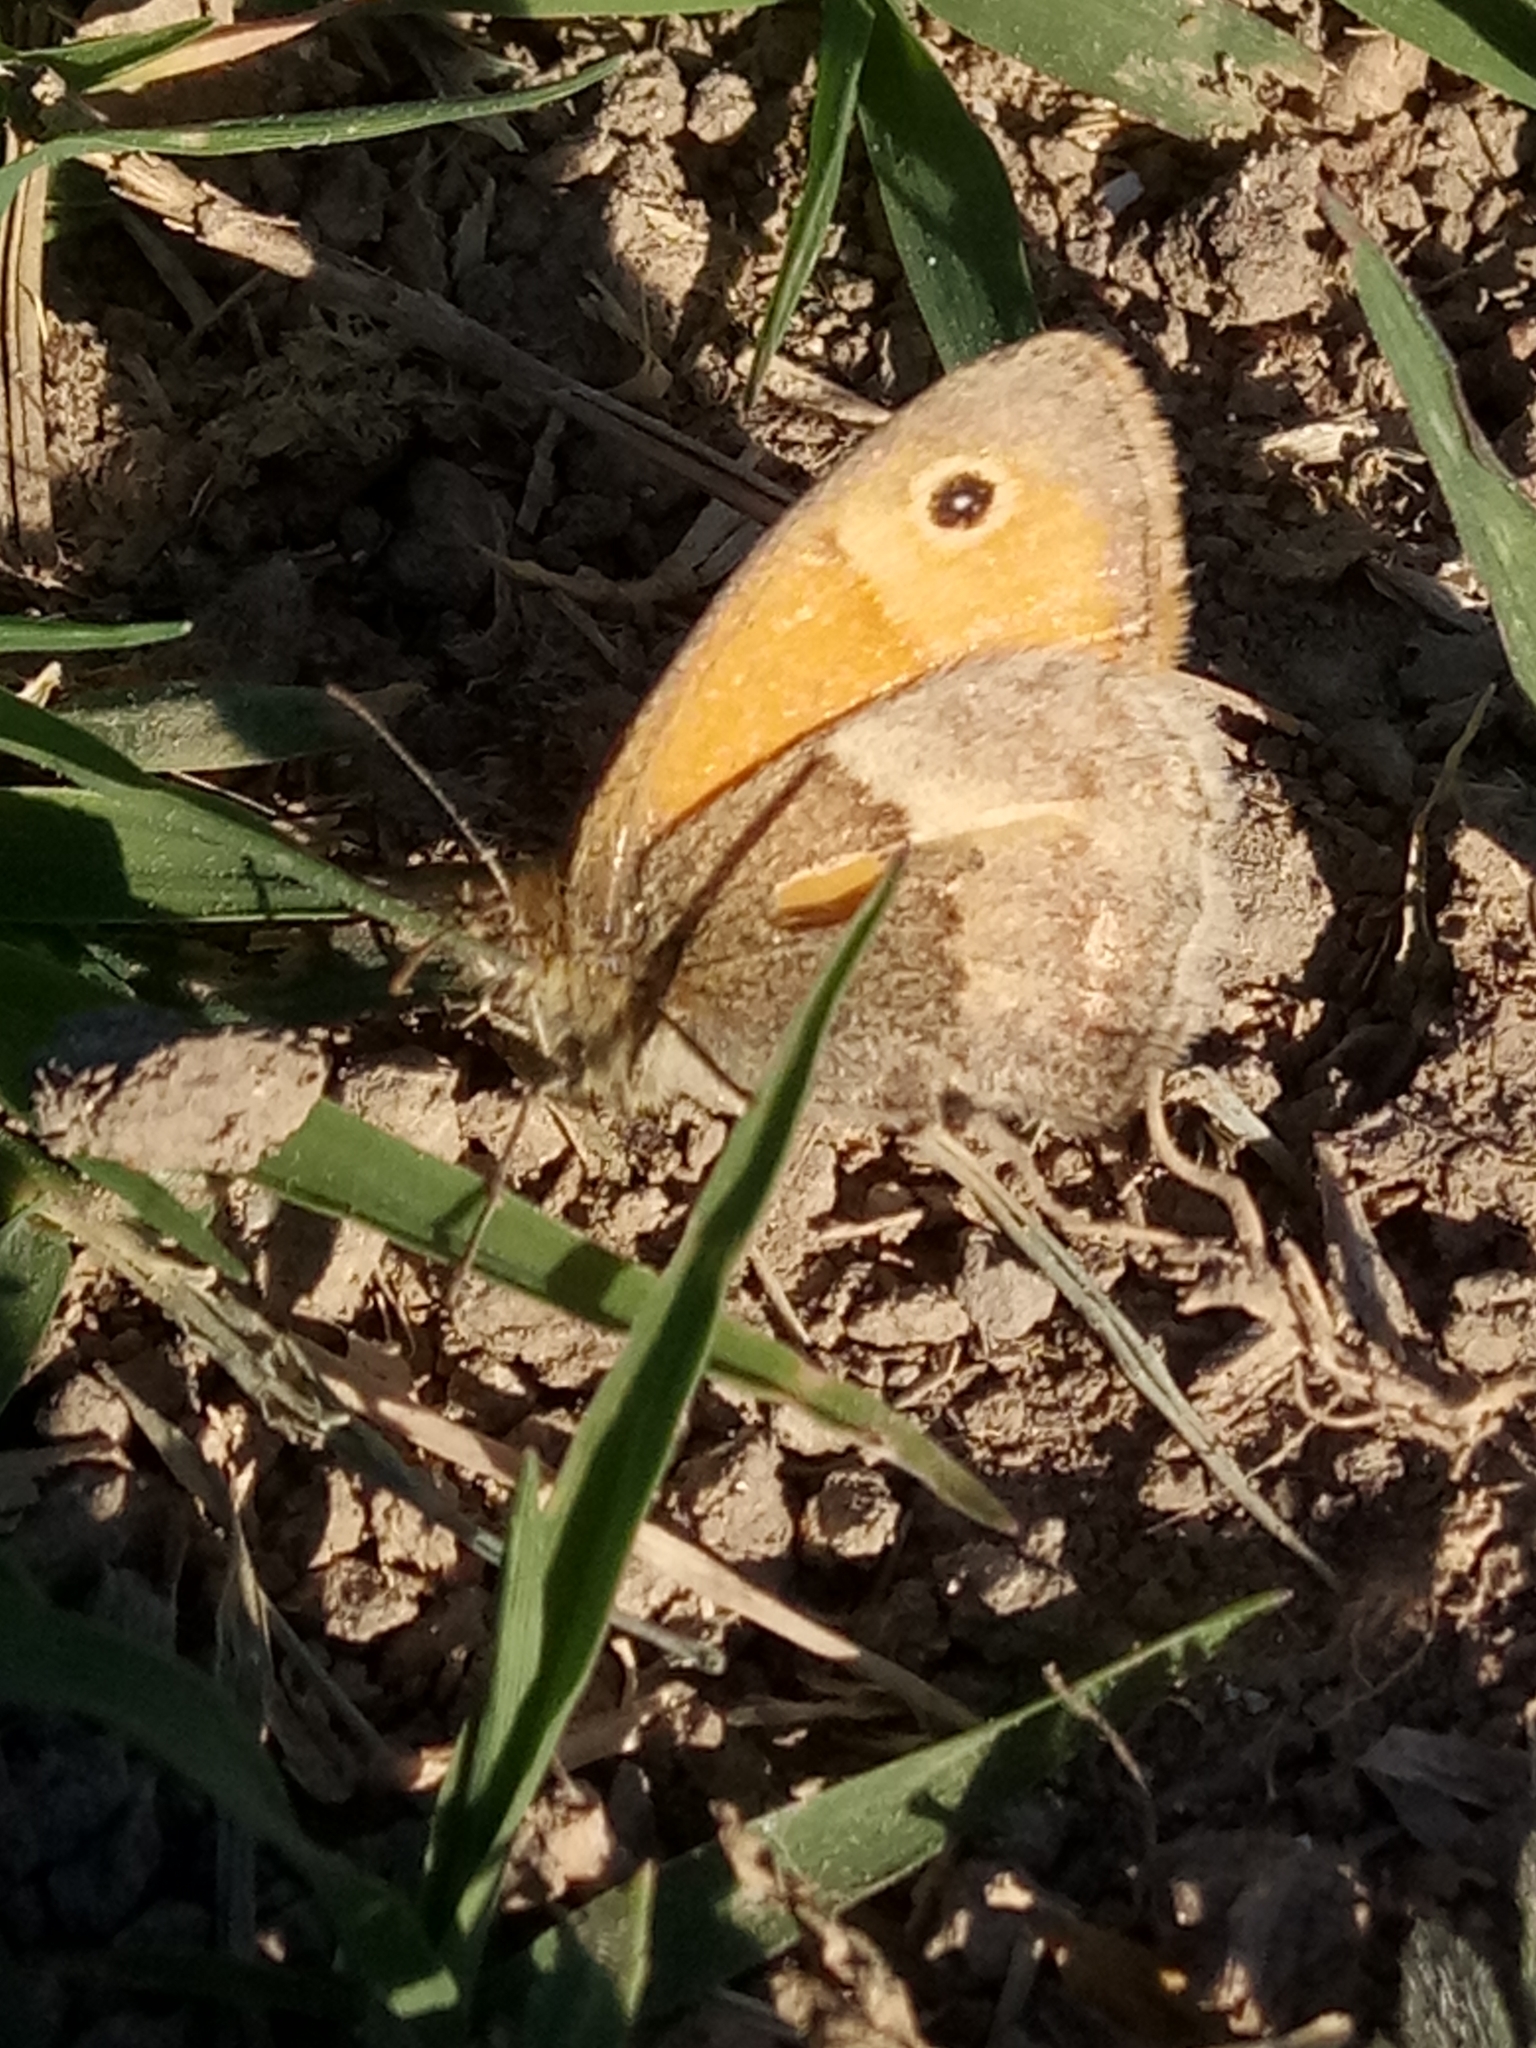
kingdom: Animalia
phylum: Arthropoda
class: Insecta
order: Lepidoptera
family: Nymphalidae
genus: Coenonympha
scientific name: Coenonympha pamphilus
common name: Small heath
